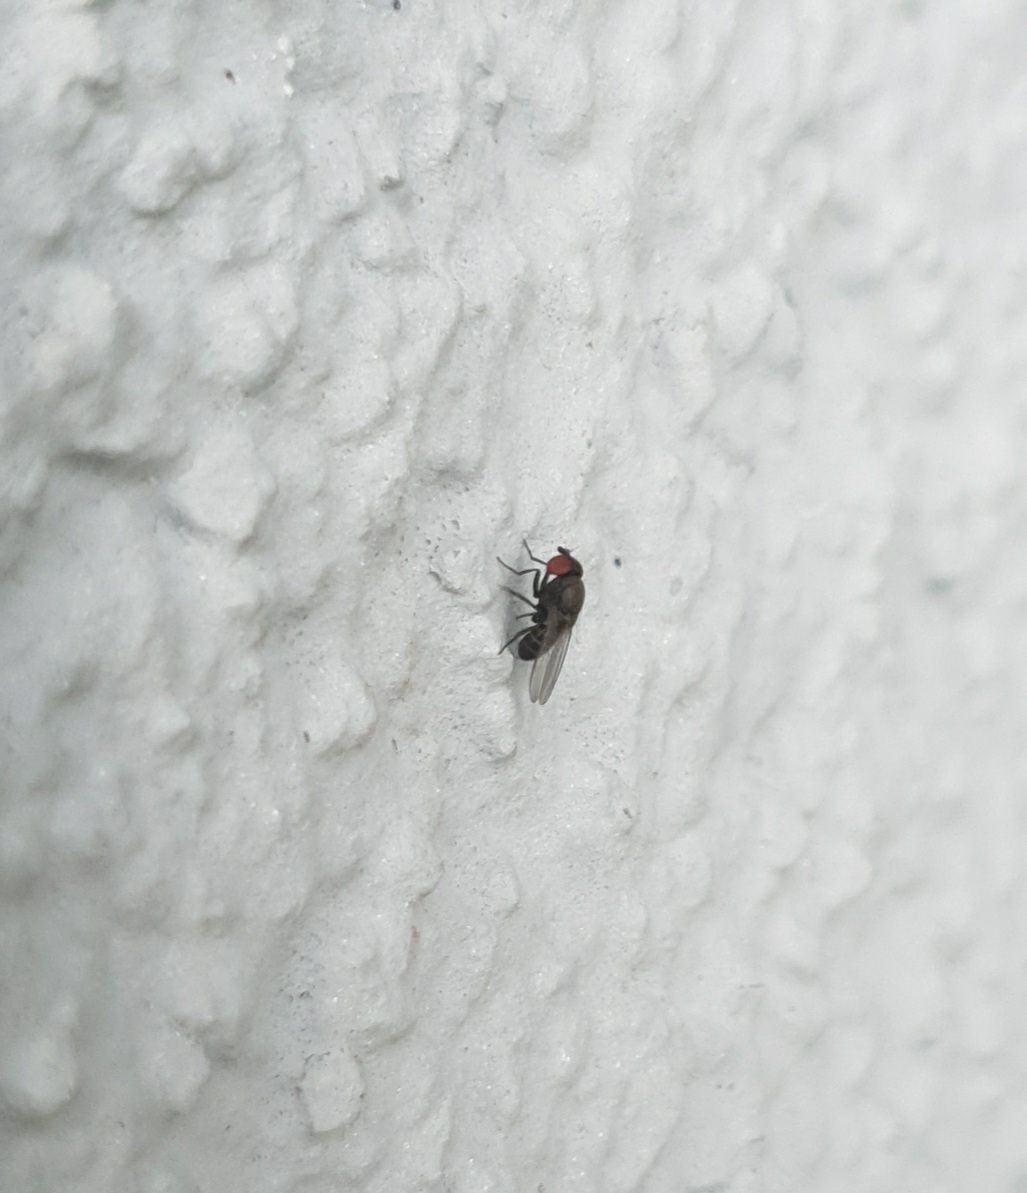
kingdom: Animalia
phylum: Arthropoda
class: Insecta
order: Diptera
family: Drosophilidae
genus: Cacoxenus
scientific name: Cacoxenus indagator
